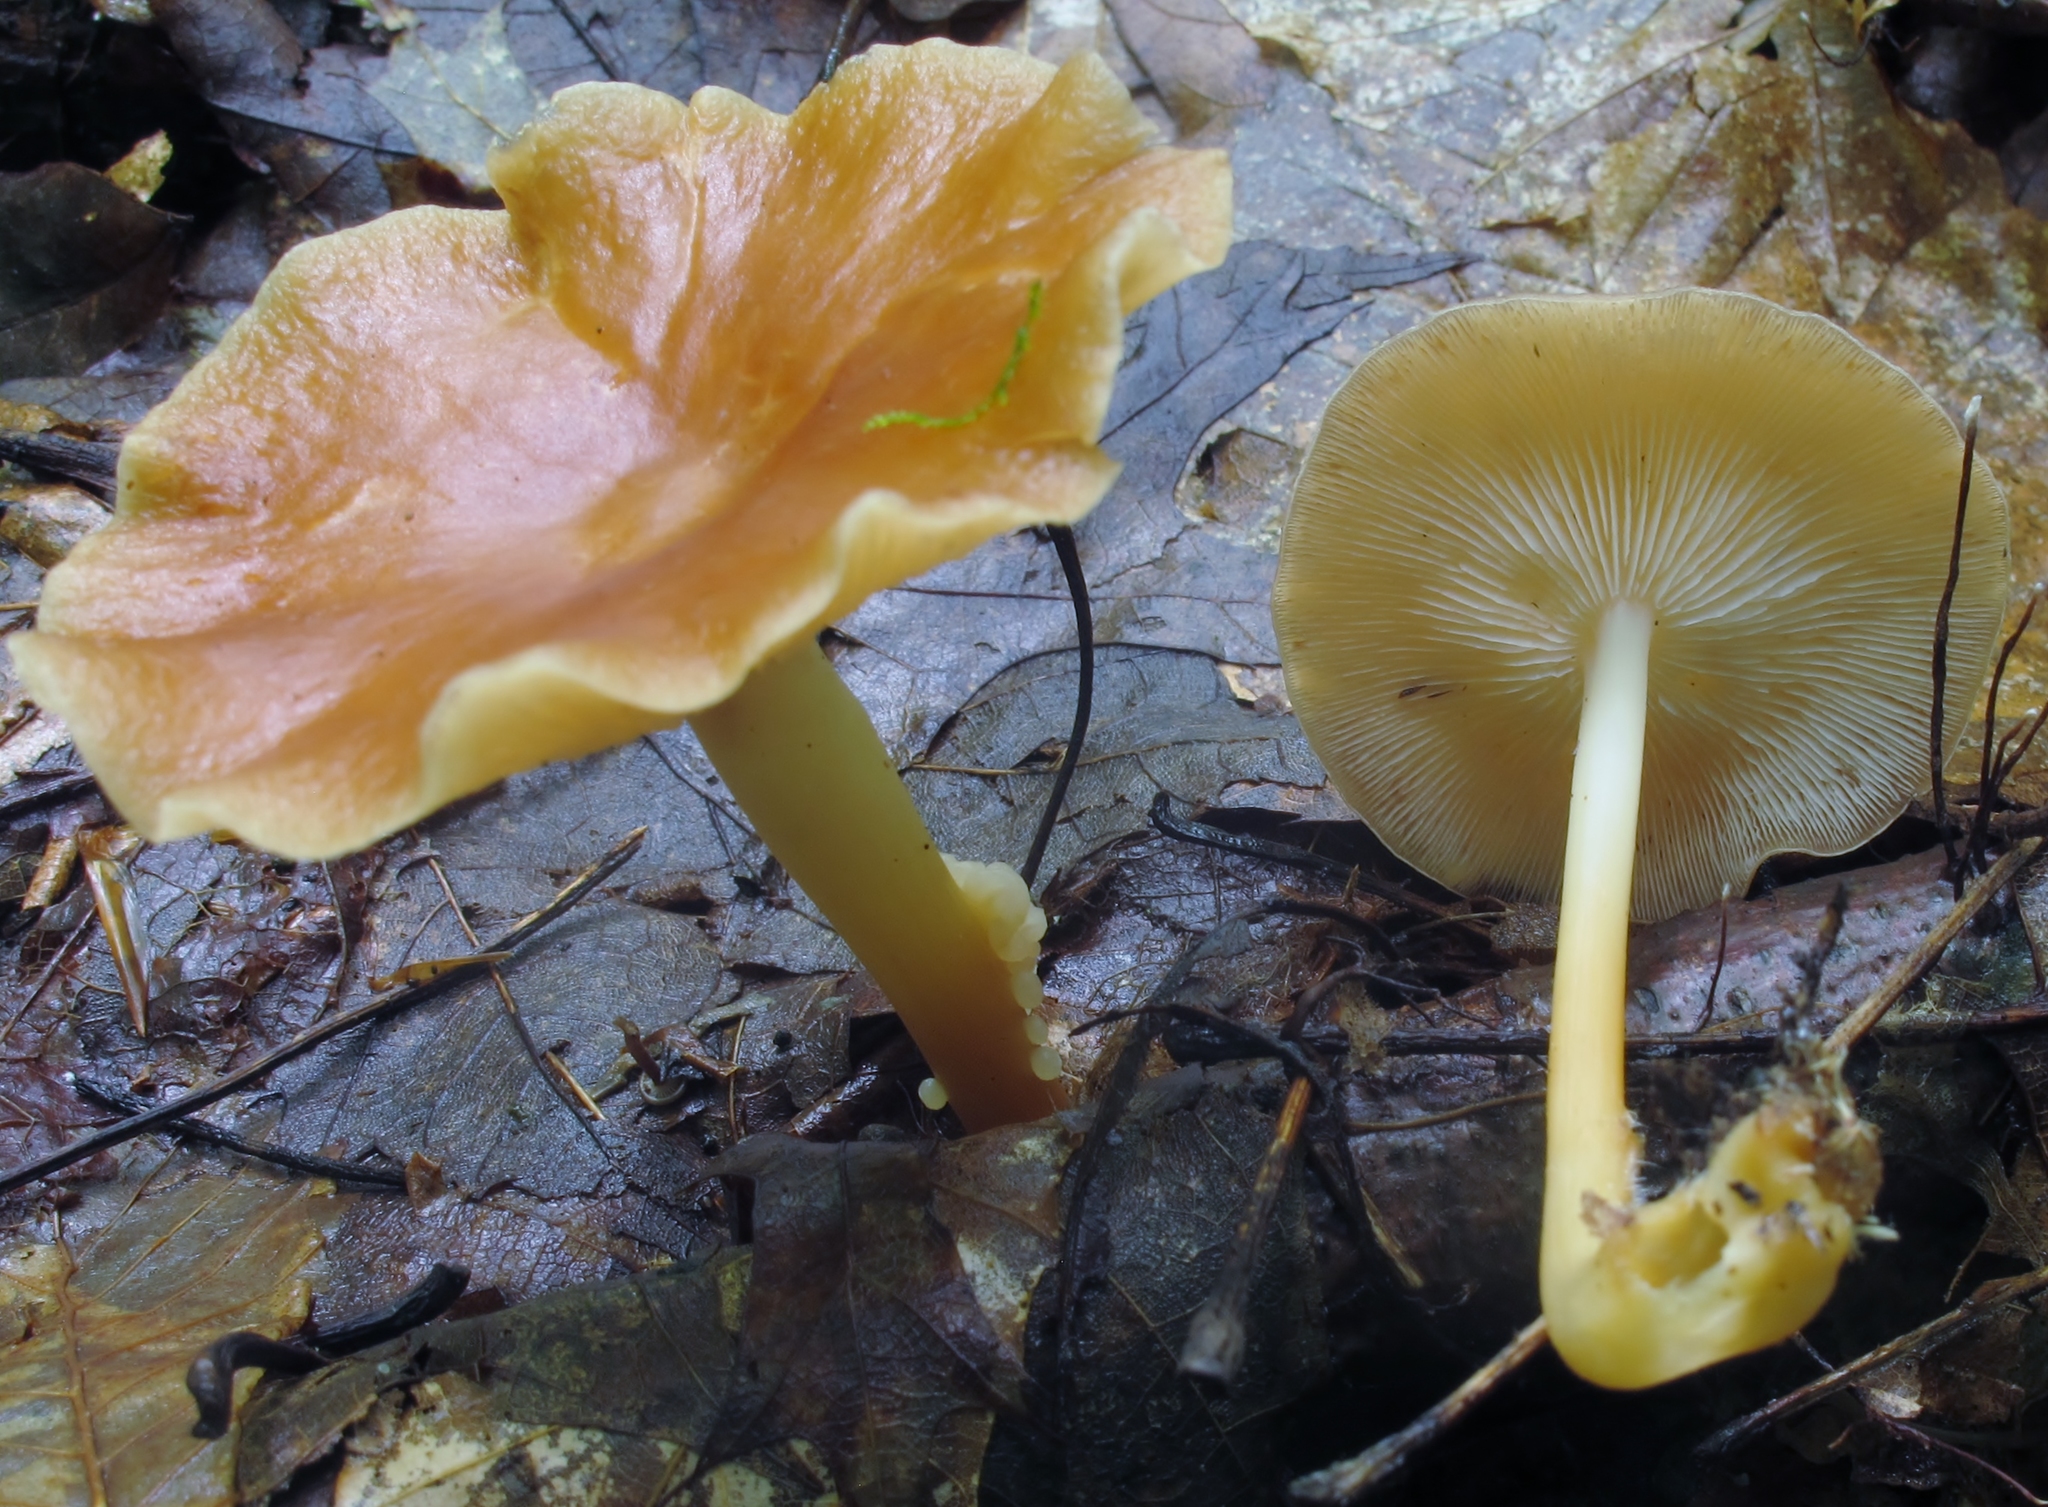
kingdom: Fungi
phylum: Basidiomycota
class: Agaricomycetes
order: Agaricales
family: Omphalotaceae
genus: Gymnopus
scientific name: Gymnopus dryophilus
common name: Penny top
